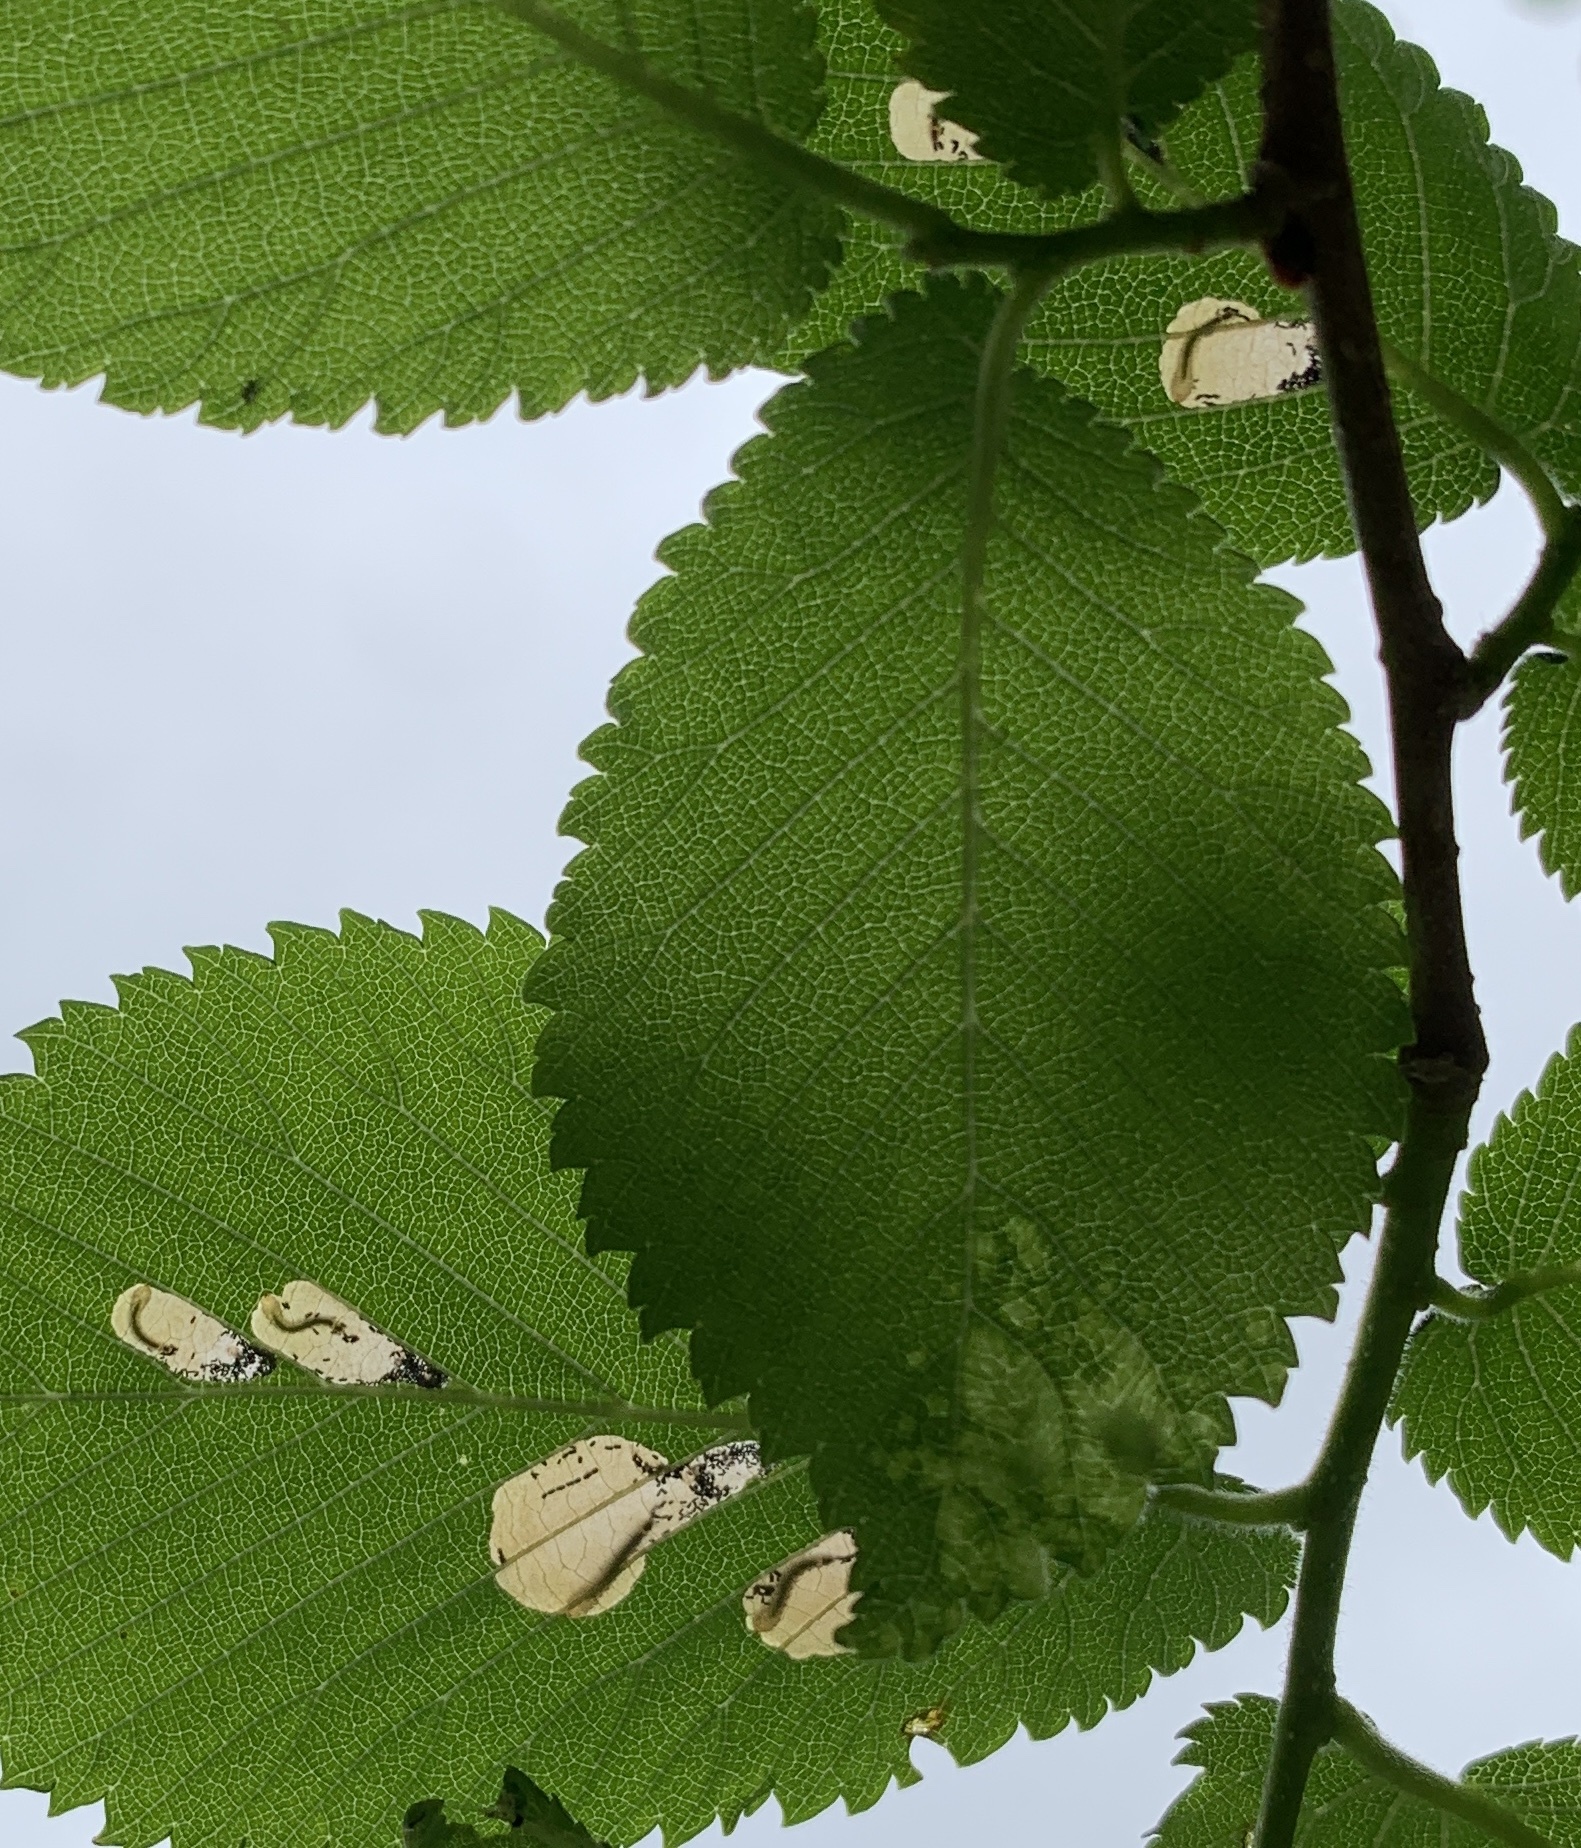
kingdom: Animalia
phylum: Arthropoda
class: Insecta
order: Hymenoptera
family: Tenthredinidae
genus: Fenusa
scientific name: Fenusa ulmi
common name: Elm leafminer
